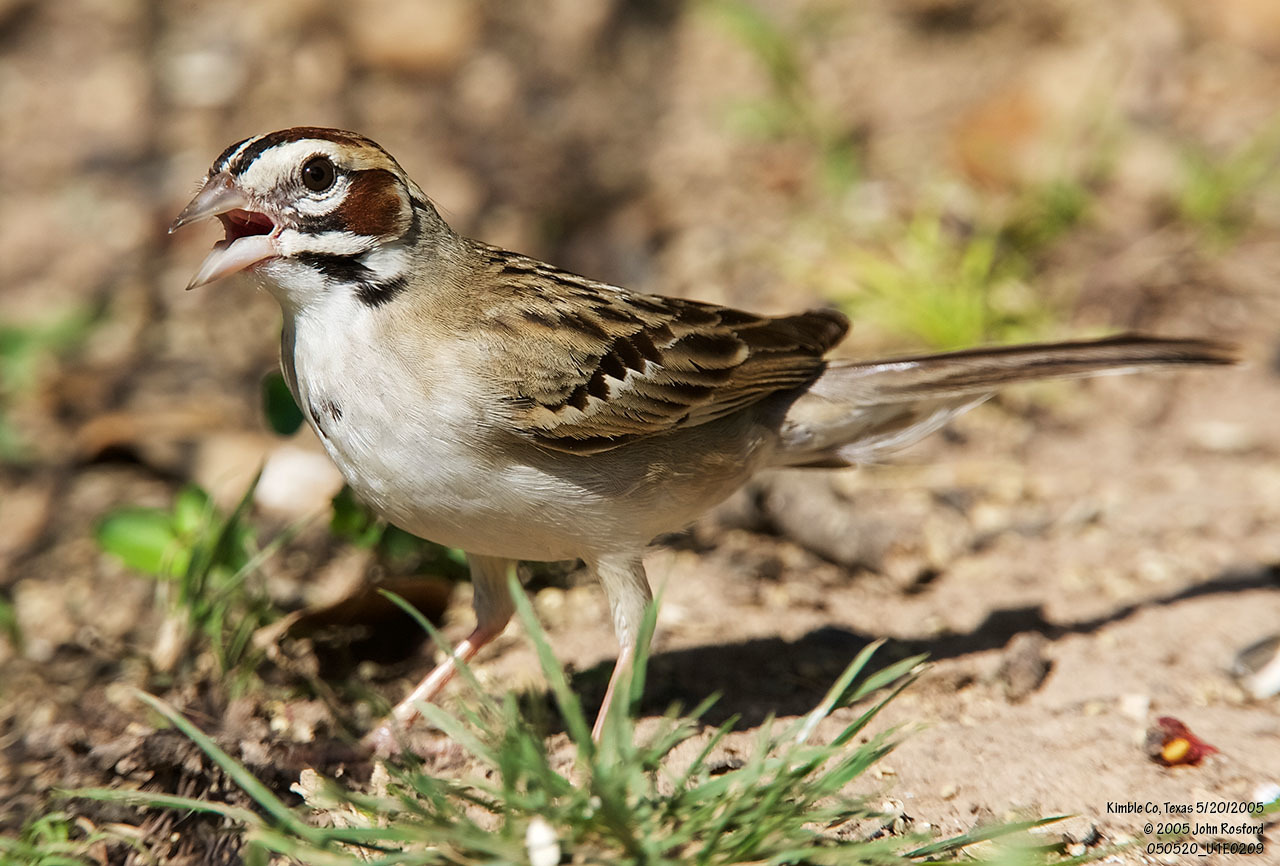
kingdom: Animalia
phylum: Chordata
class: Aves
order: Passeriformes
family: Passerellidae
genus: Chondestes
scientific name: Chondestes grammacus
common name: Lark sparrow
